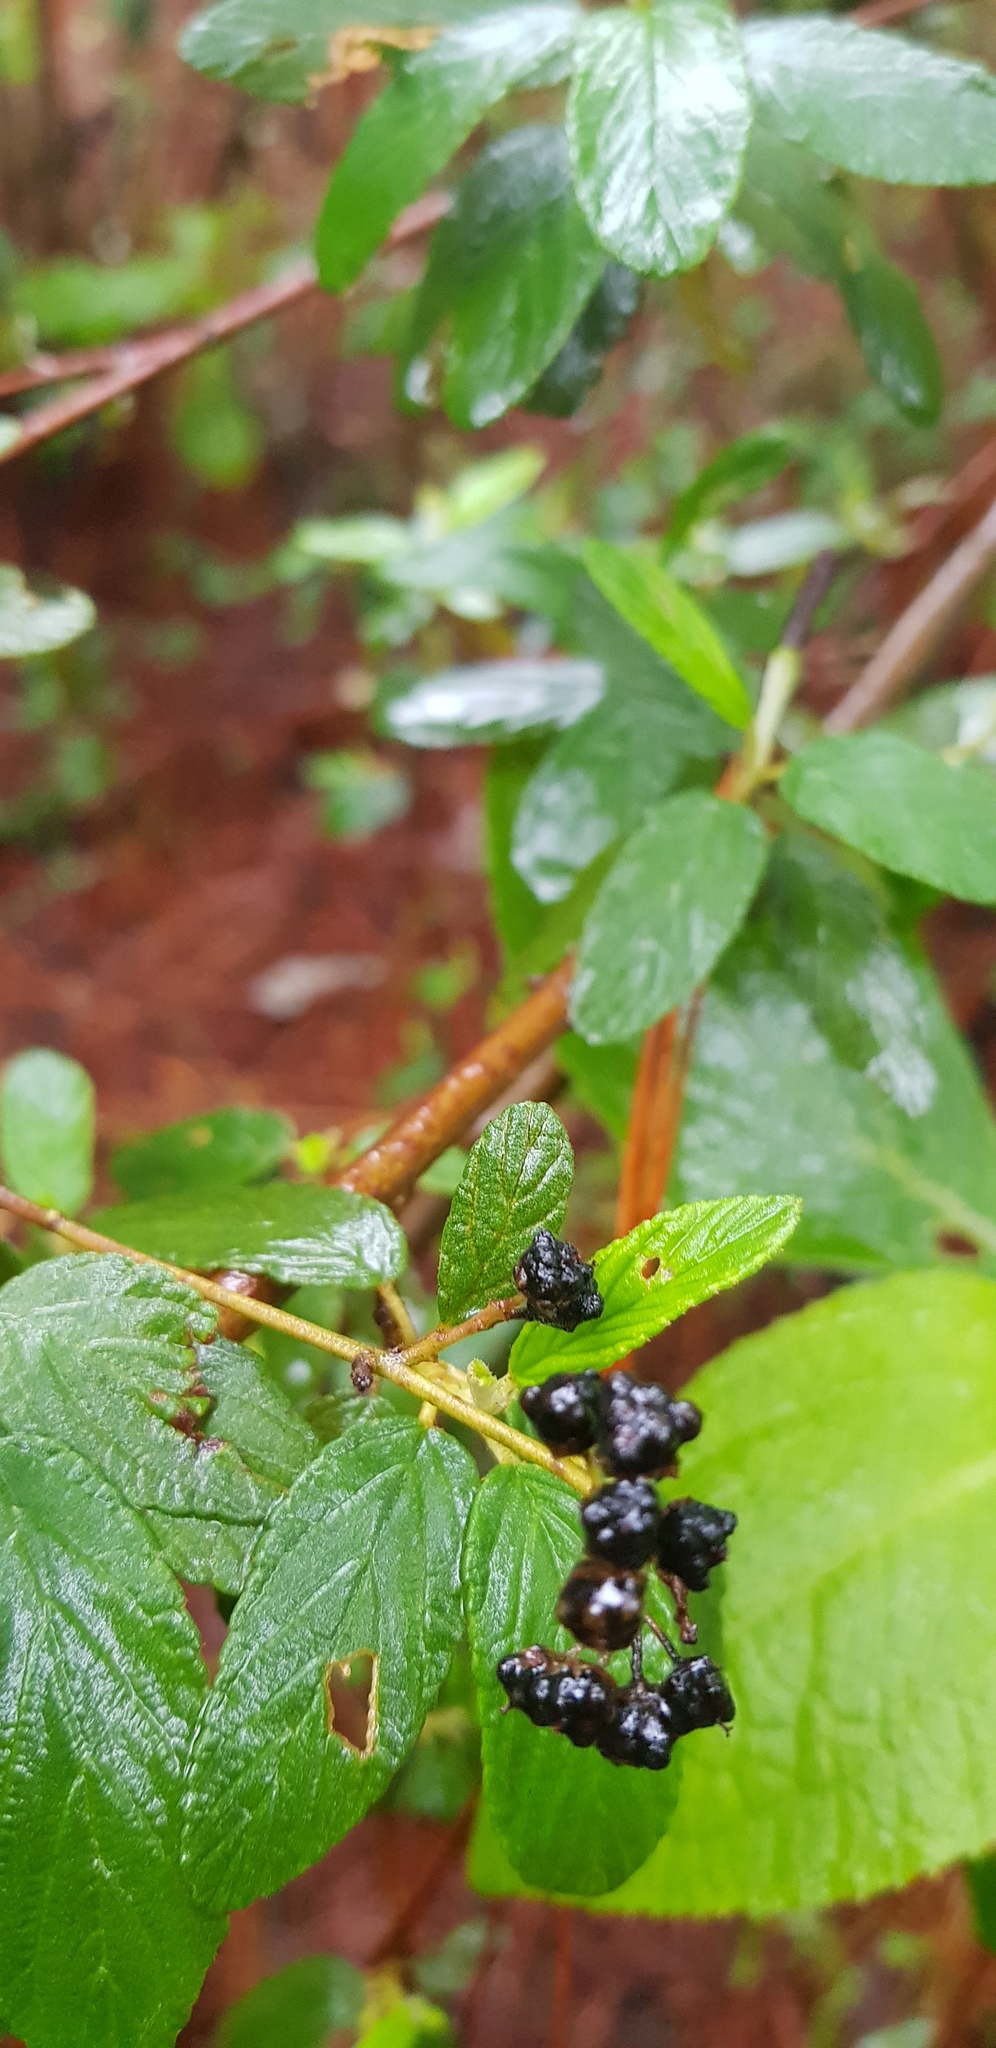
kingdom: Plantae
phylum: Tracheophyta
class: Magnoliopsida
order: Rosales
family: Rhamnaceae
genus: Ceanothus
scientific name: Ceanothus caeruleus
